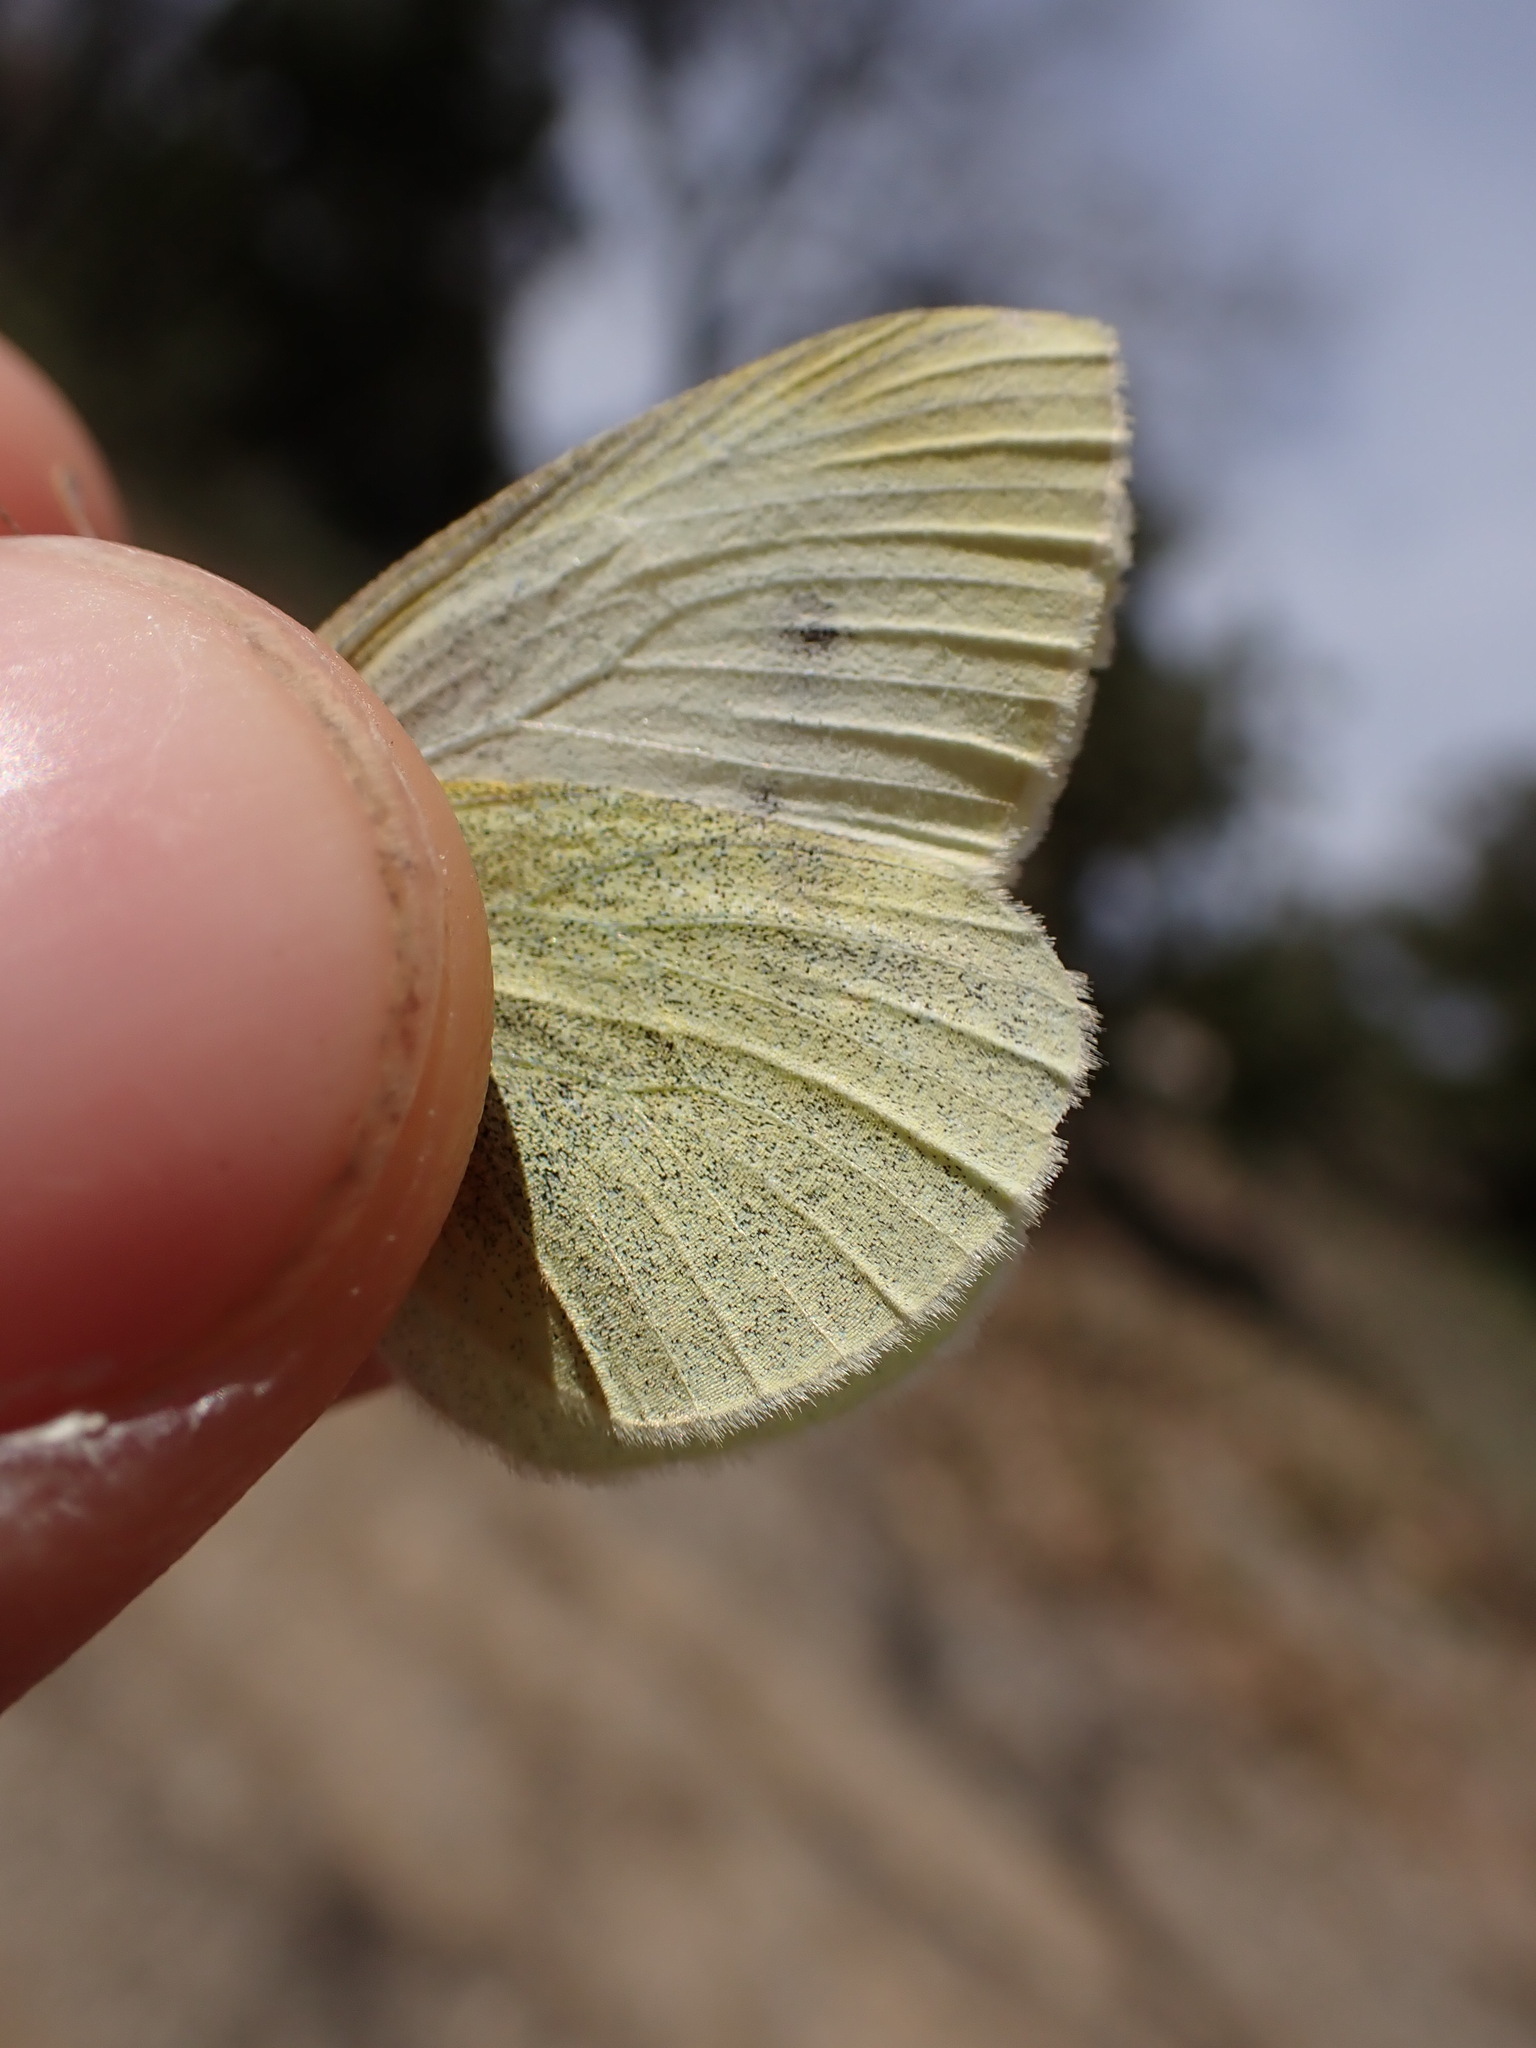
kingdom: Animalia
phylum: Arthropoda
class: Insecta
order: Lepidoptera
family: Pieridae
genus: Pieris
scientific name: Pieris rapae
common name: Small white
